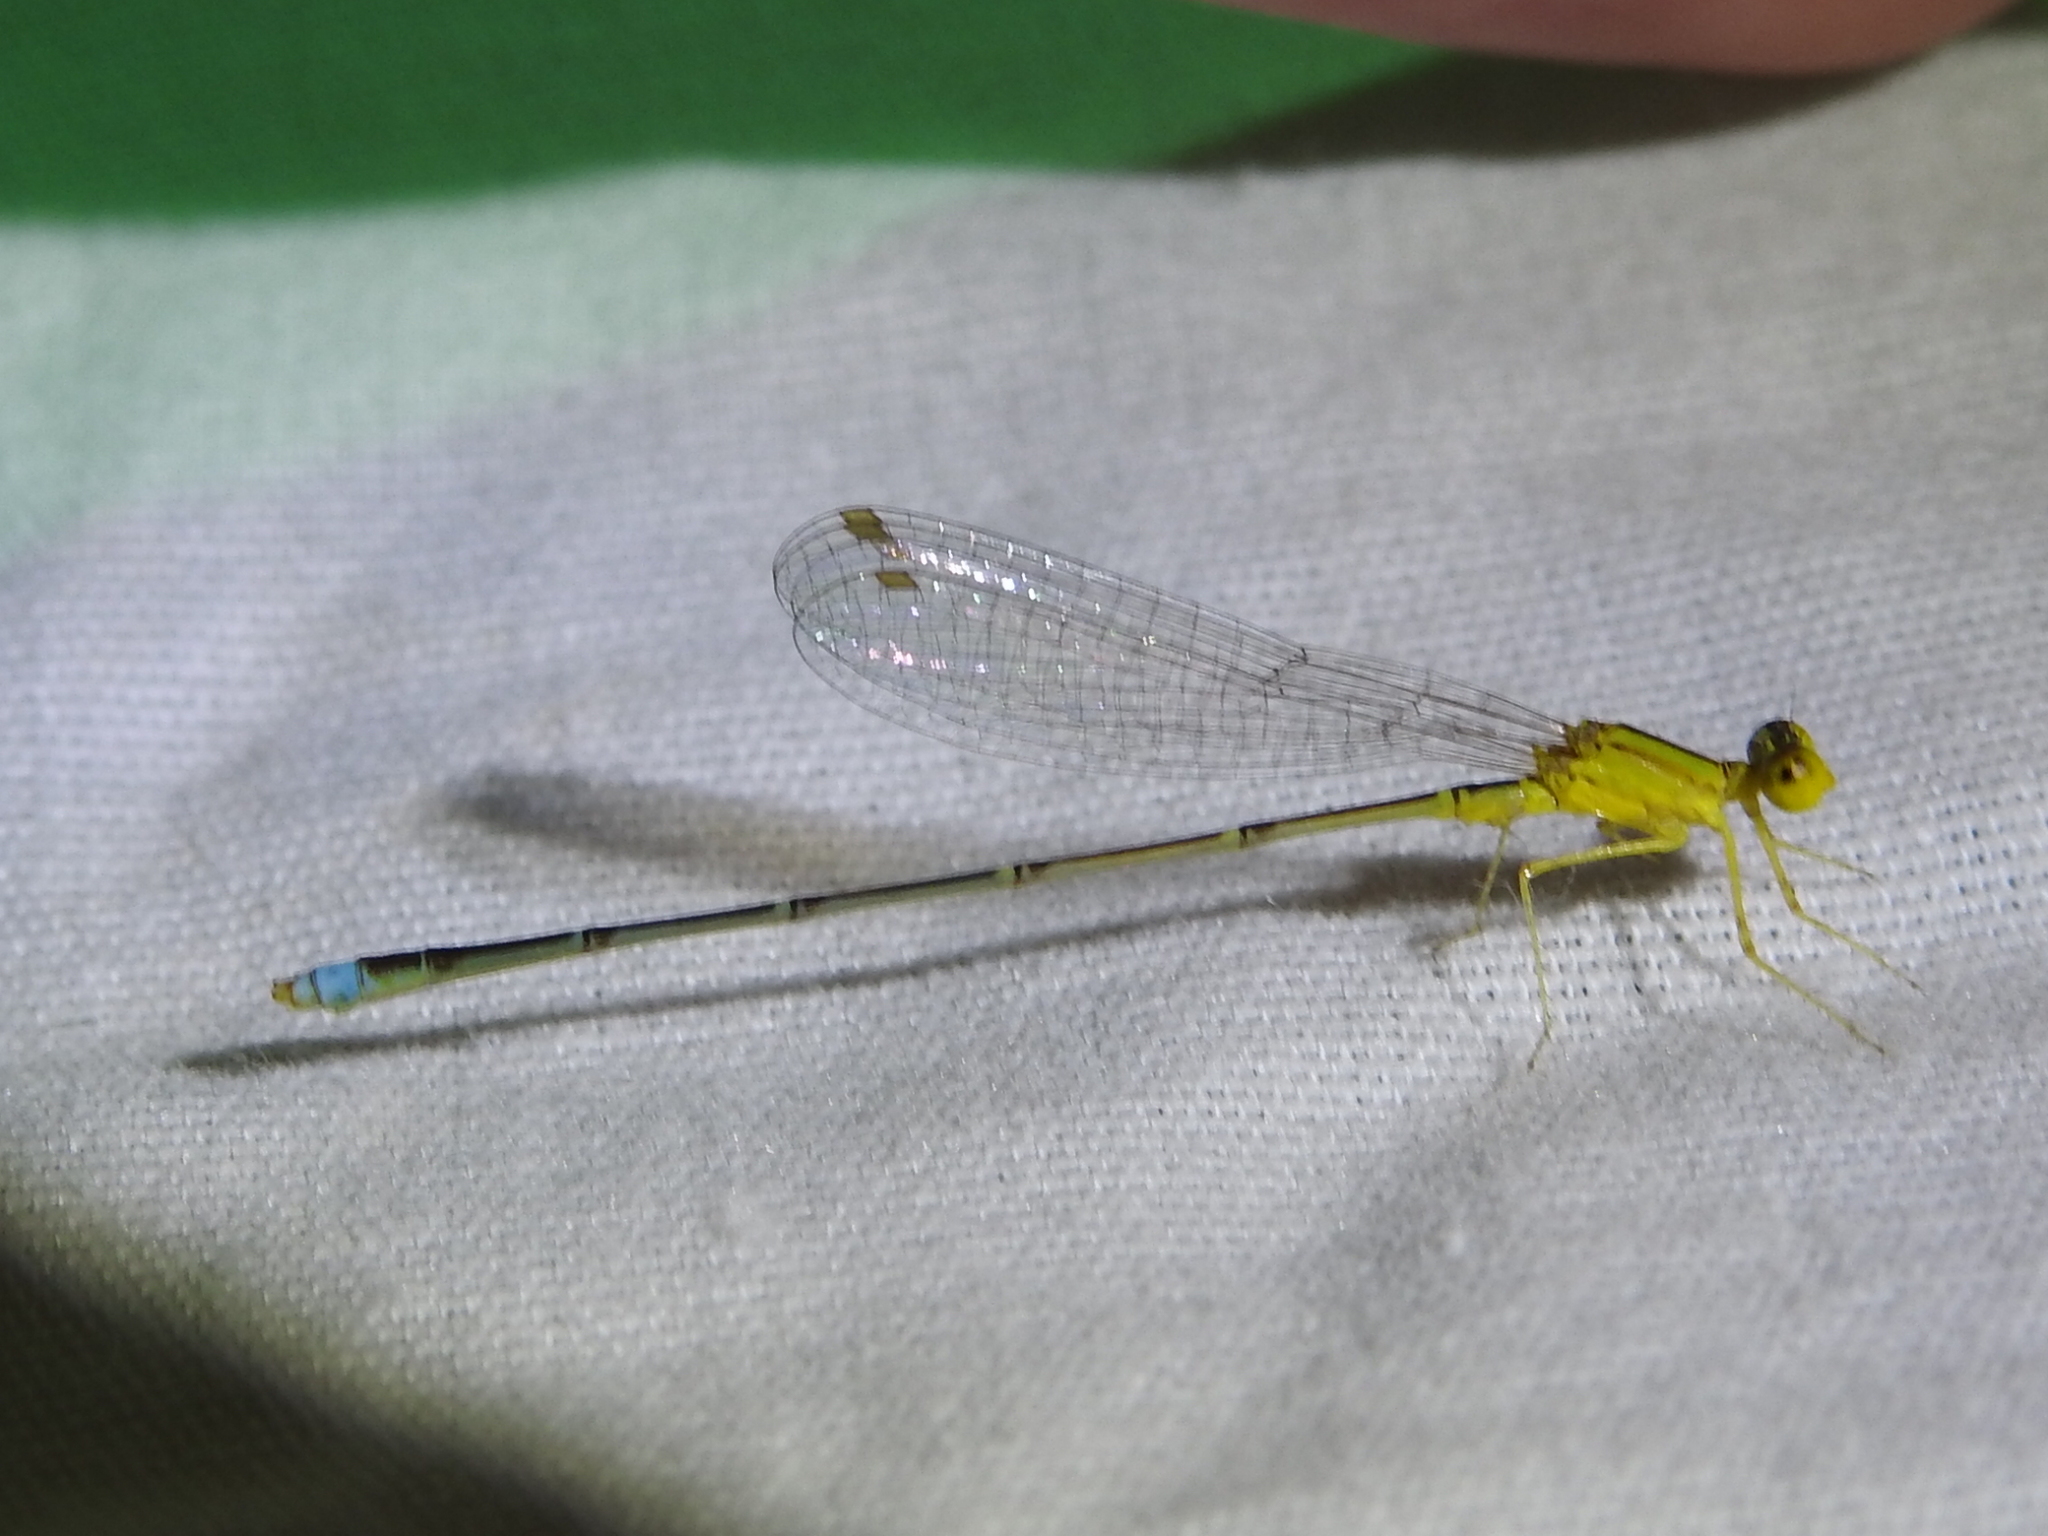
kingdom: Animalia
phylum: Arthropoda
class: Insecta
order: Odonata
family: Coenagrionidae
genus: Enallagma
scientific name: Enallagma vesperum
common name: Vesper bluet
